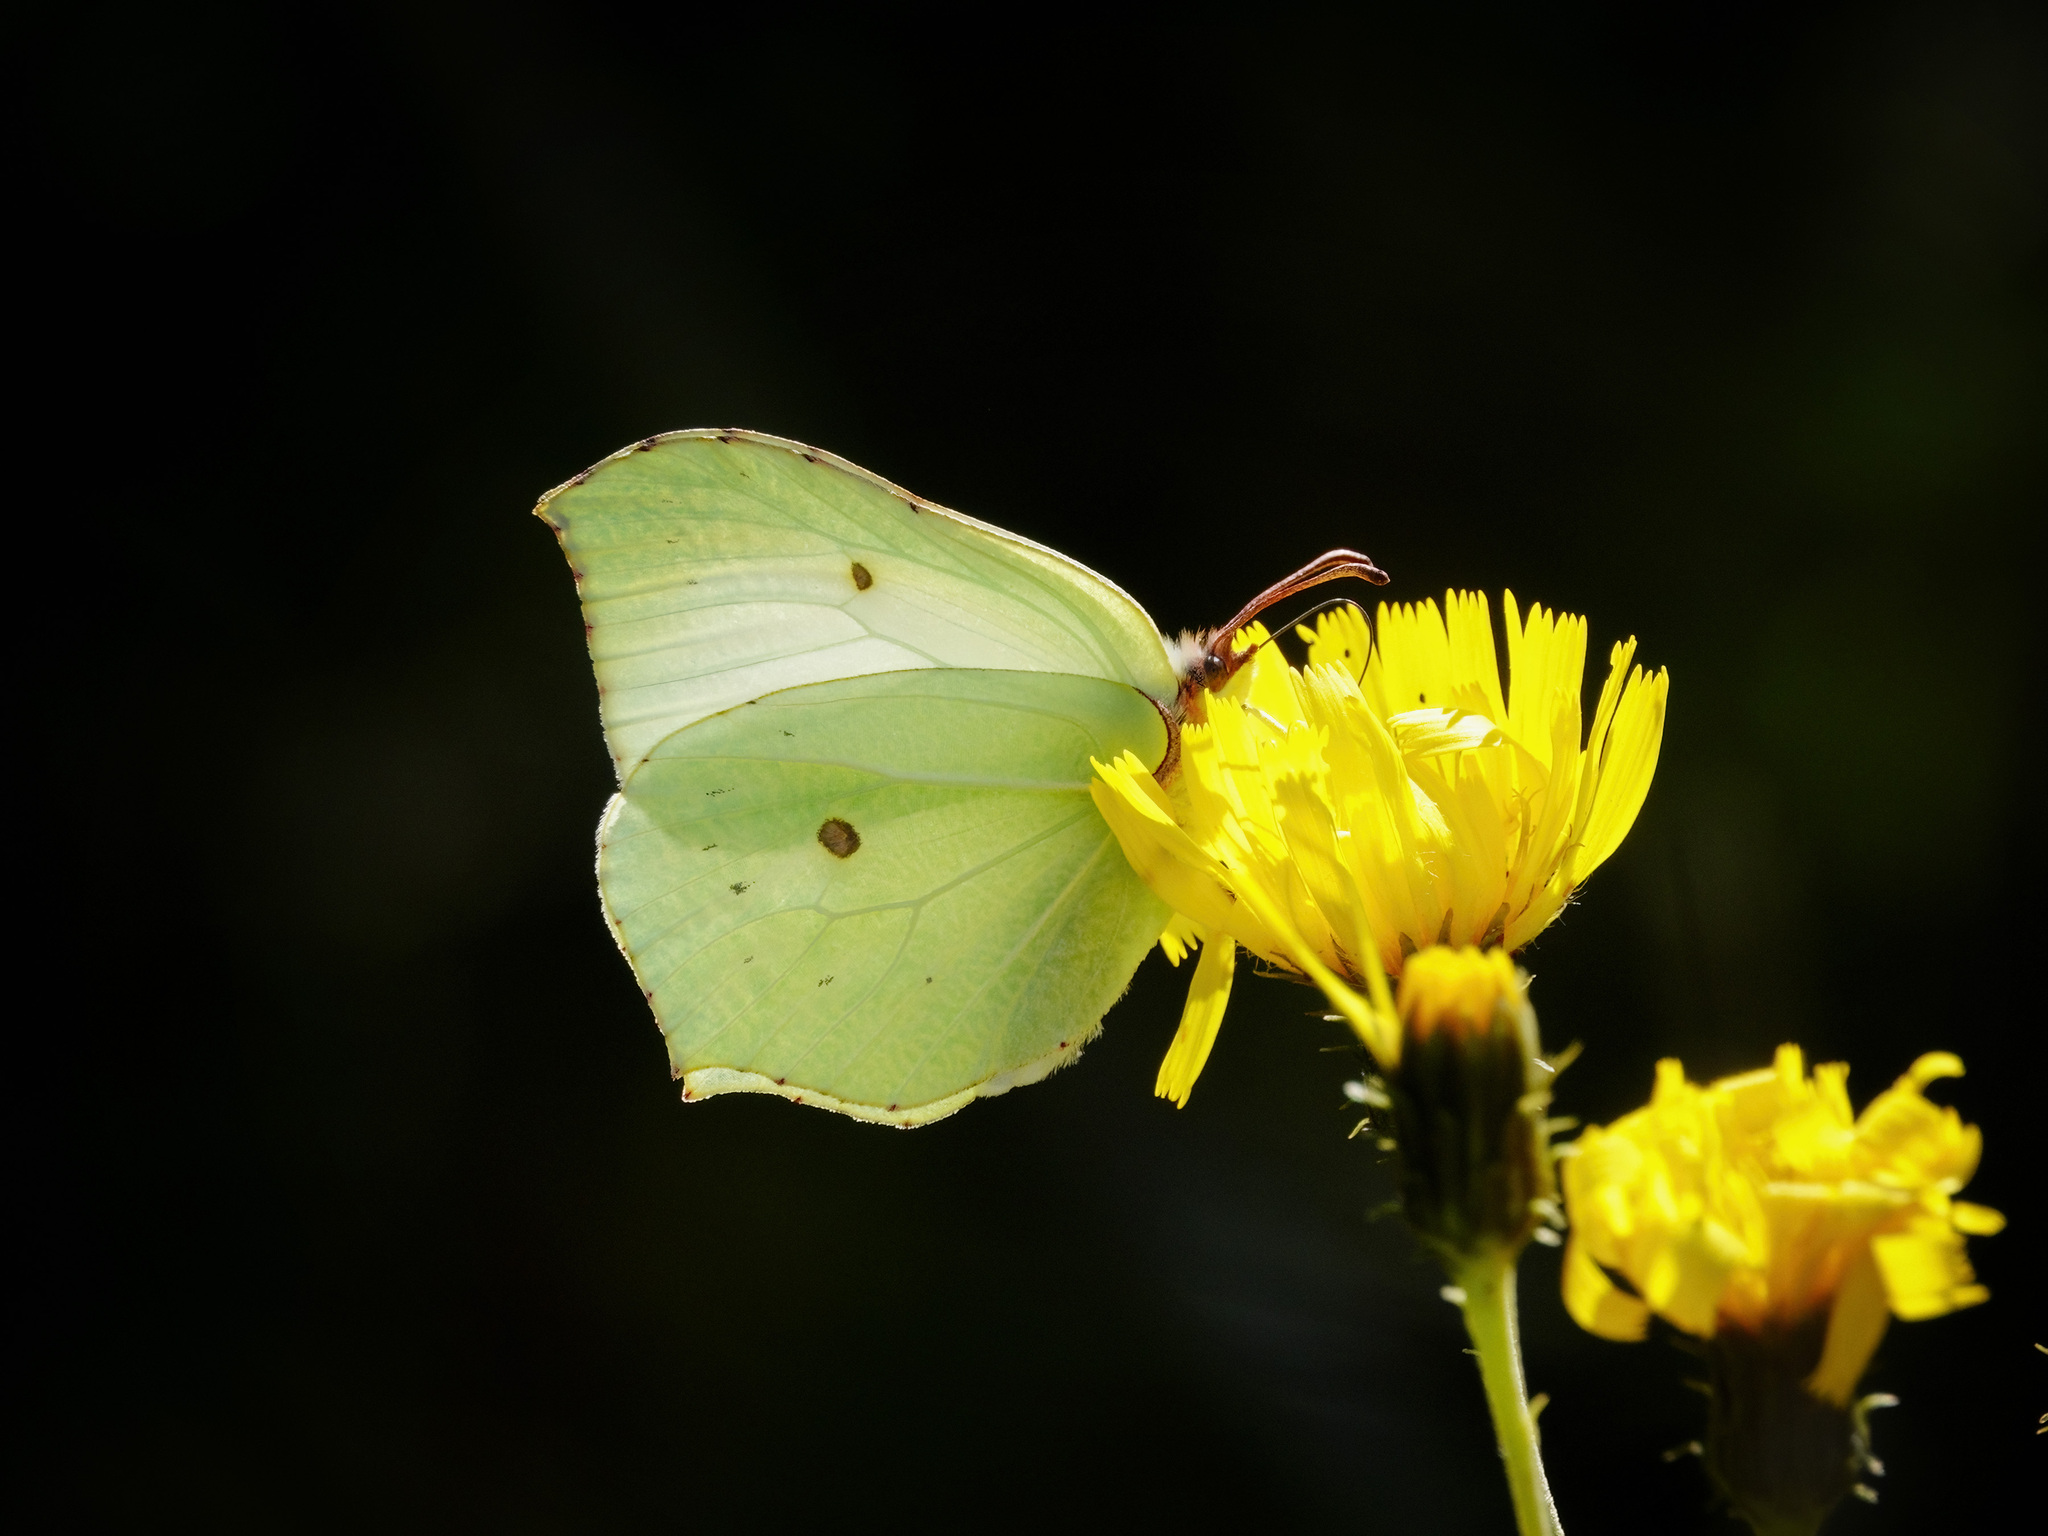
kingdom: Animalia
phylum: Arthropoda
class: Insecta
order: Lepidoptera
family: Pieridae
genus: Gonepteryx
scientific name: Gonepteryx rhamni
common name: Brimstone
